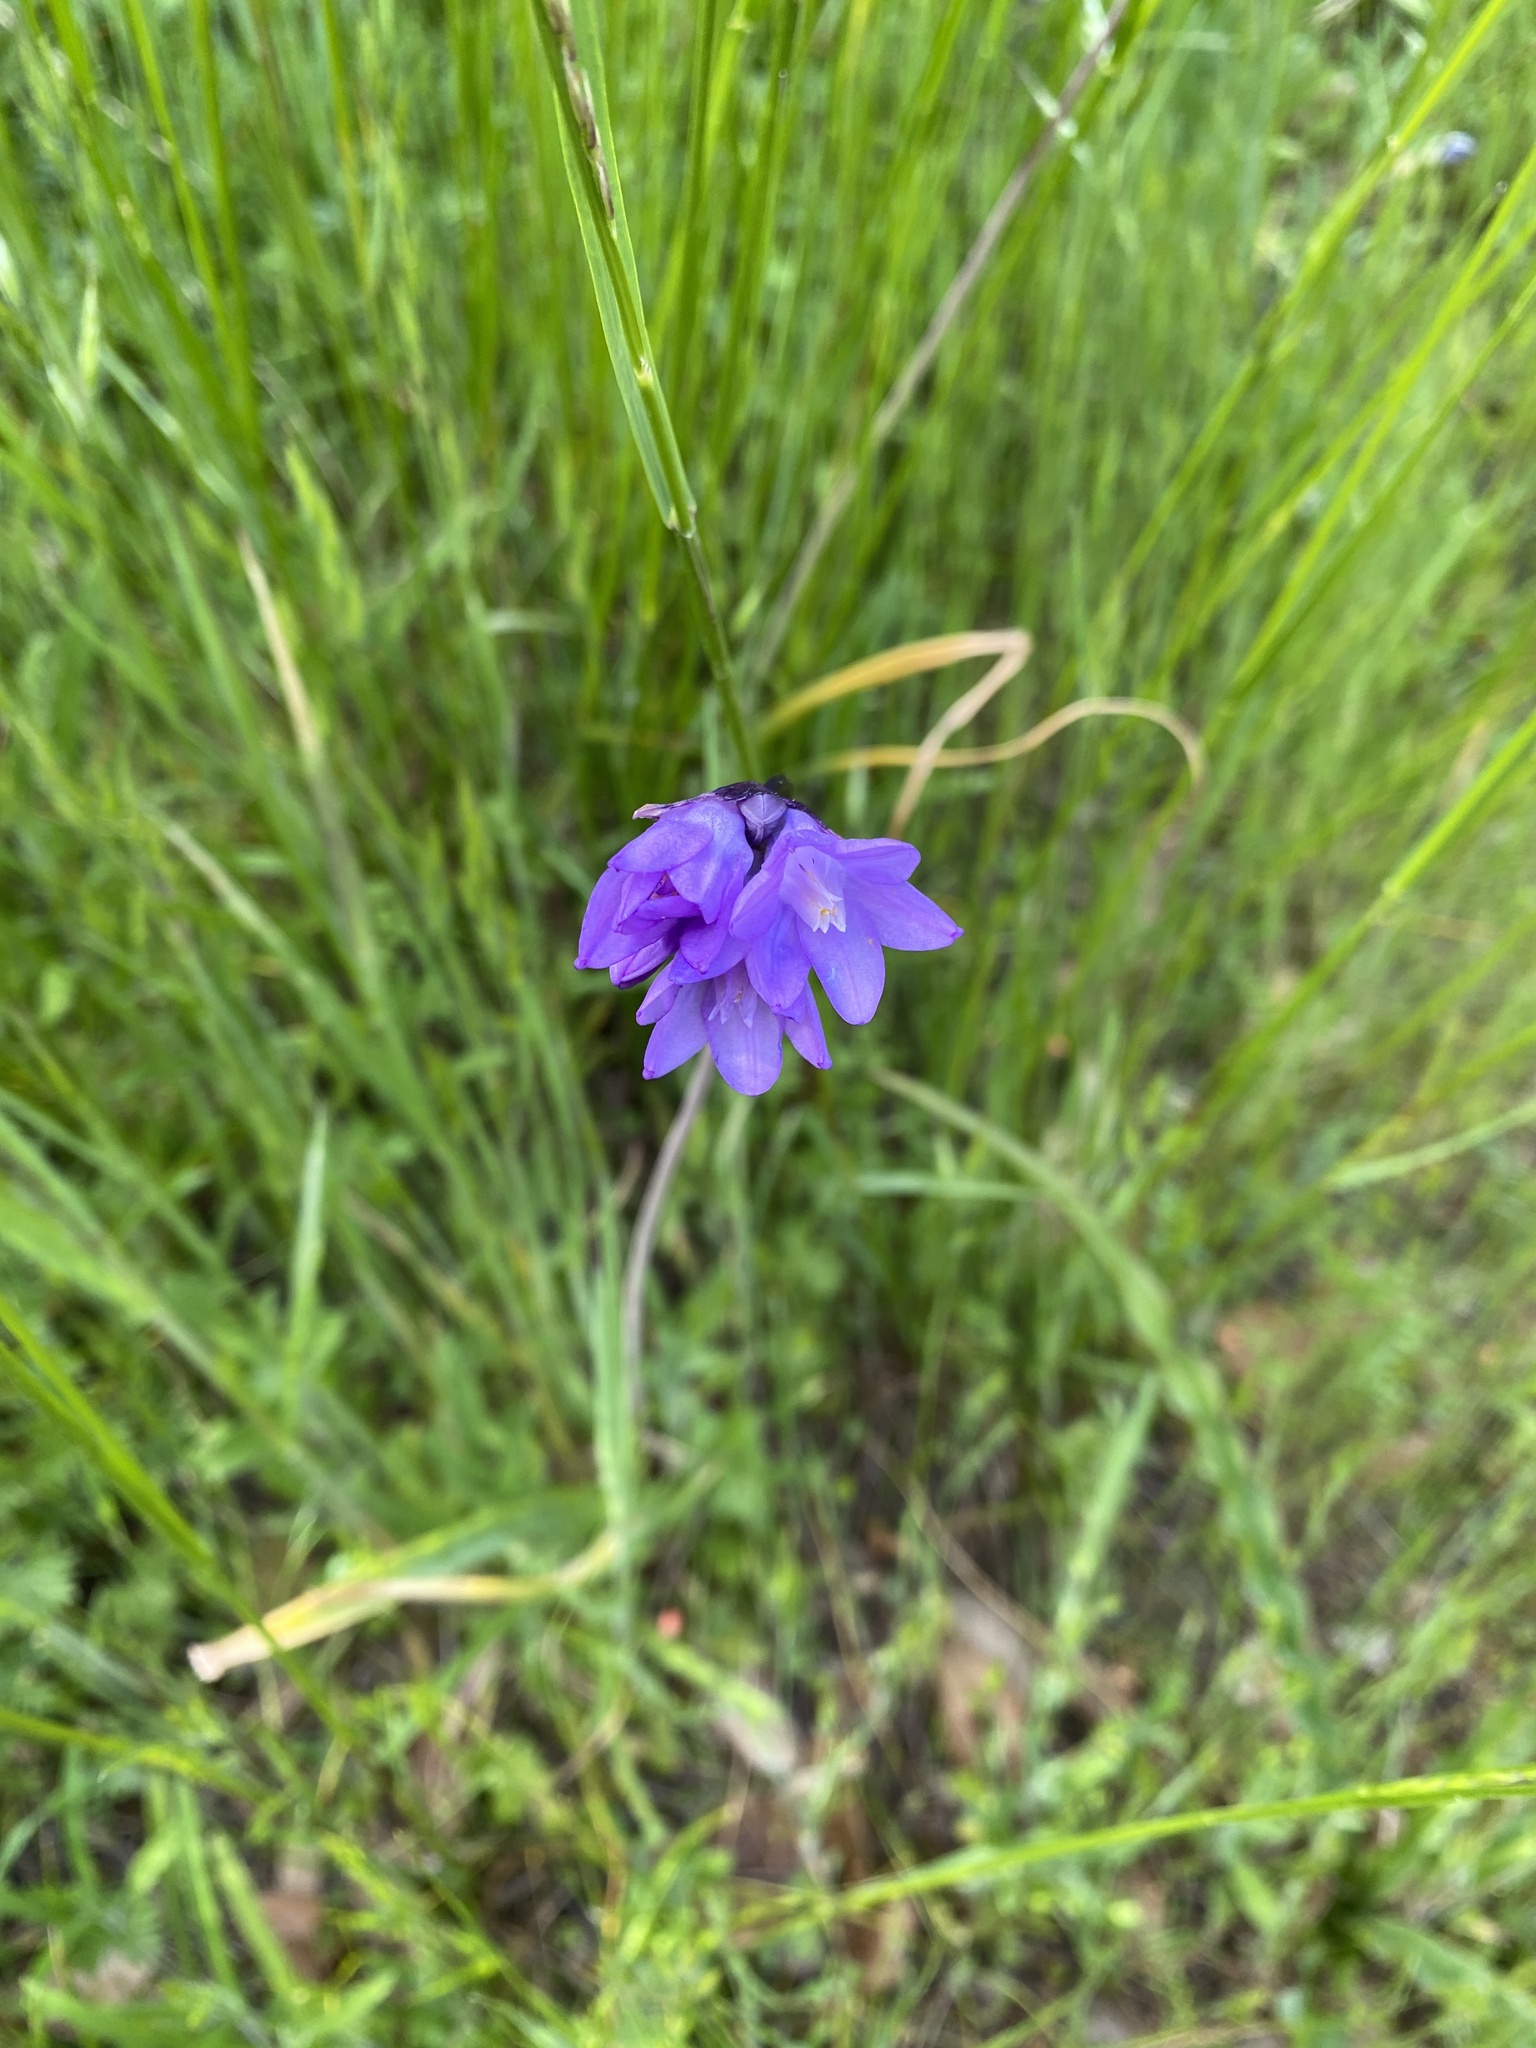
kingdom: Plantae
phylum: Tracheophyta
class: Liliopsida
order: Asparagales
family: Asparagaceae
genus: Dipterostemon
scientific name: Dipterostemon capitatus
